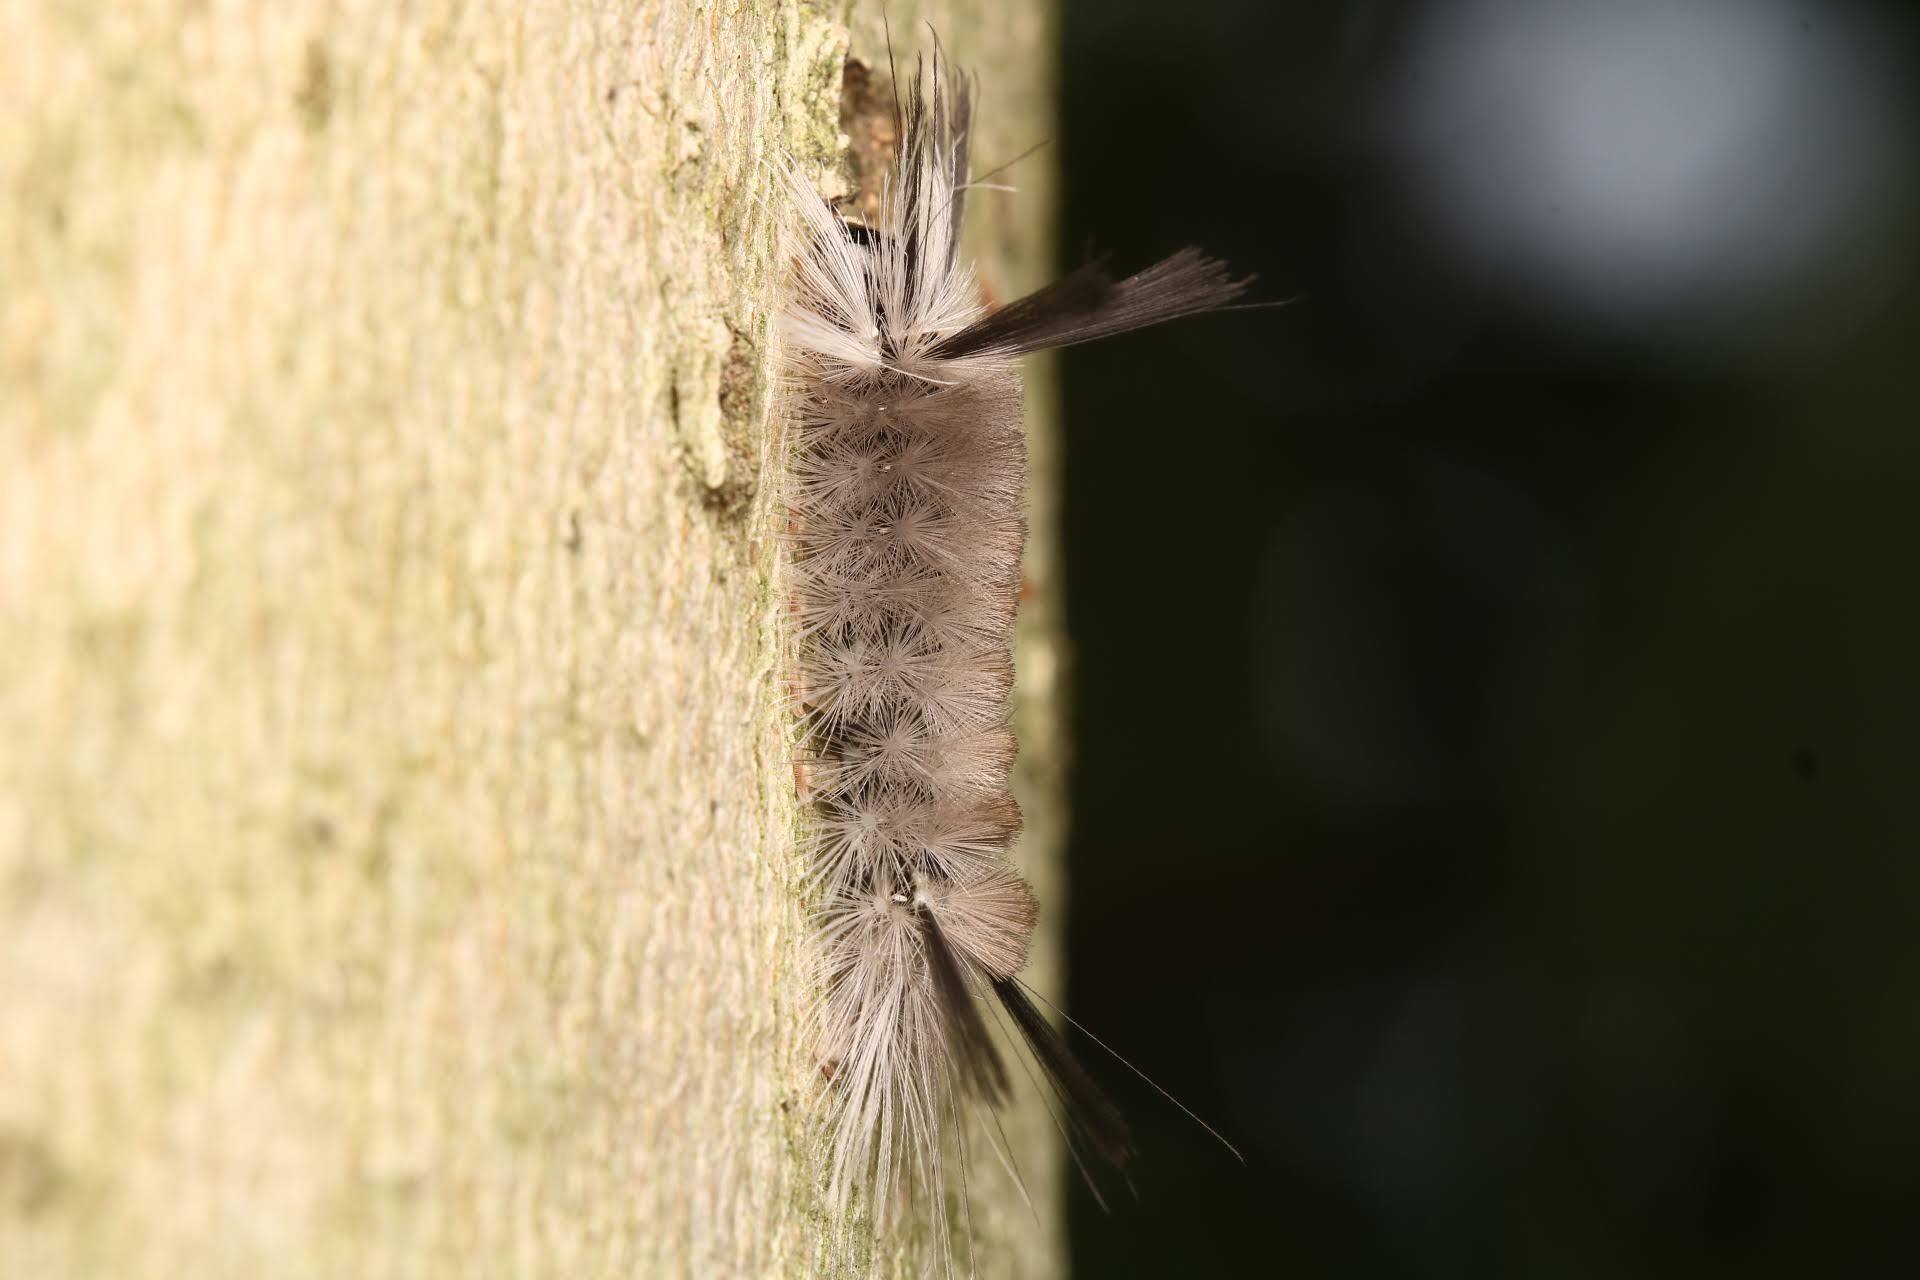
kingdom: Animalia
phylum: Arthropoda
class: Insecta
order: Lepidoptera
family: Erebidae
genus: Halysidota
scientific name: Halysidota tessellaris
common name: Banded tussock moth
